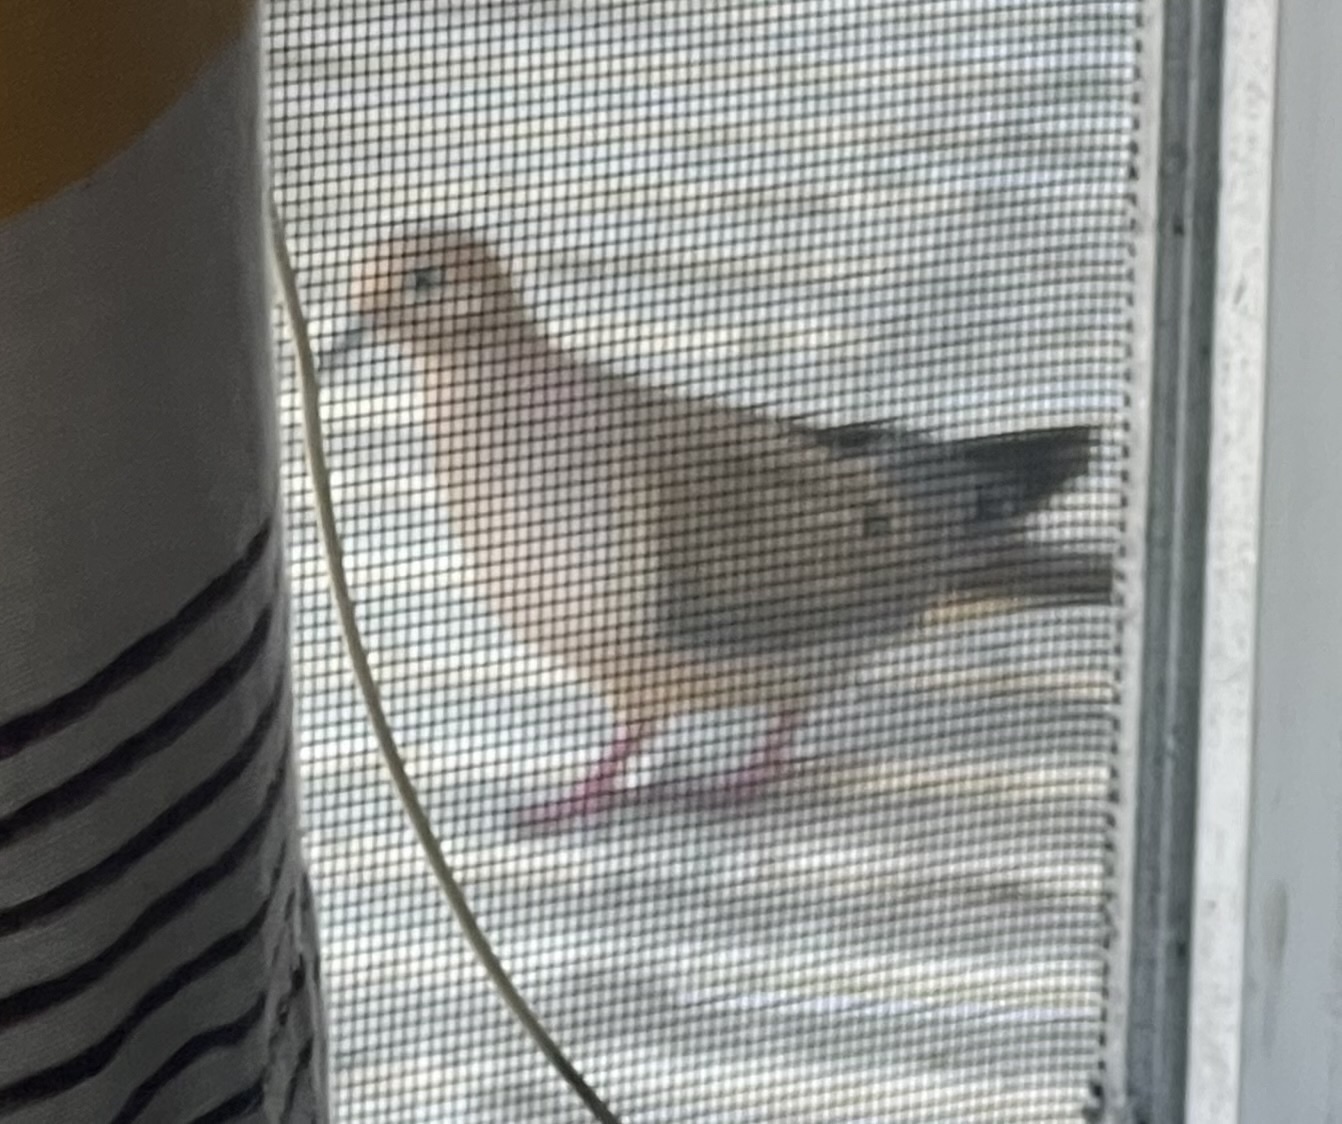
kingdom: Animalia
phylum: Chordata
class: Aves
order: Columbiformes
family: Columbidae
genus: Zenaida
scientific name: Zenaida macroura
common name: Mourning dove
